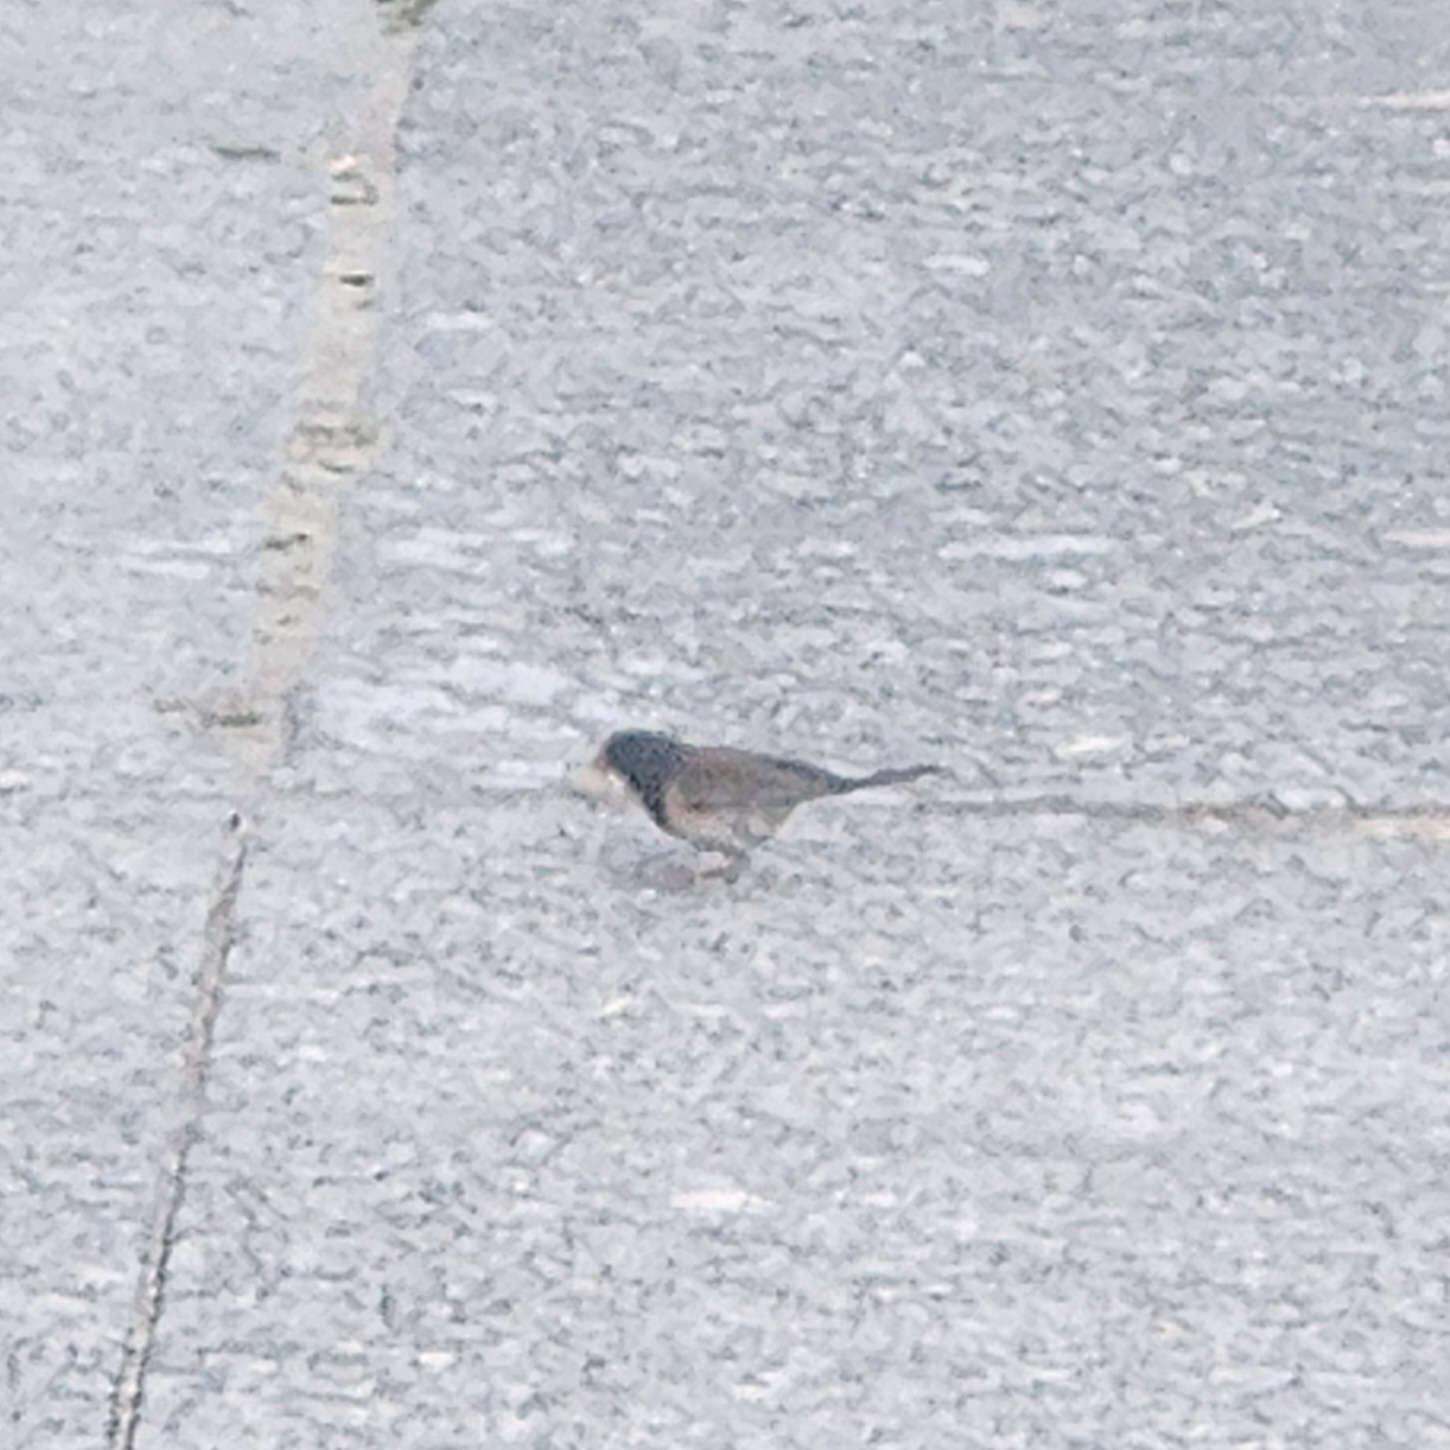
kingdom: Animalia
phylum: Chordata
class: Aves
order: Passeriformes
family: Passerellidae
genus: Junco
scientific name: Junco hyemalis
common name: Dark-eyed junco
